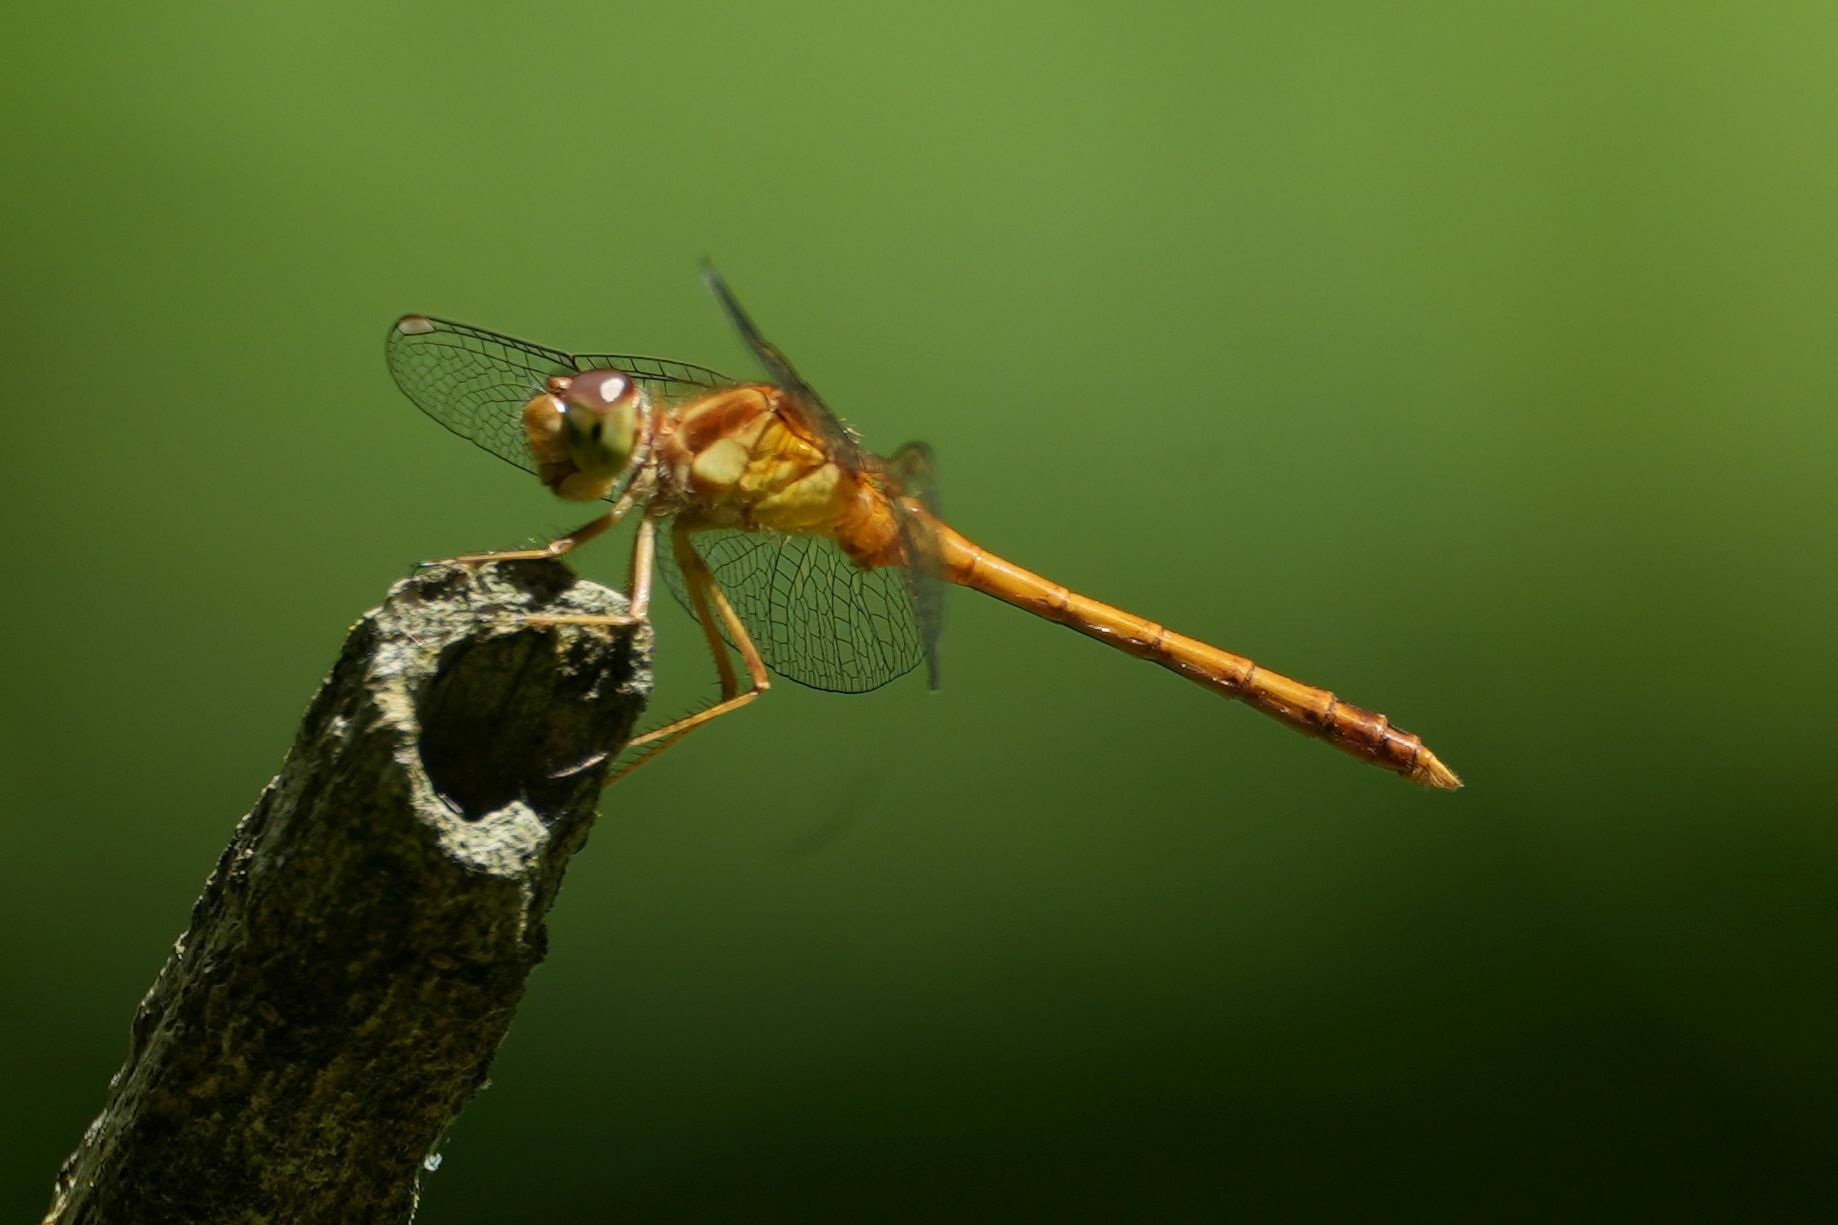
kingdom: Animalia
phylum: Arthropoda
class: Insecta
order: Odonata
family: Libellulidae
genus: Sympetrum
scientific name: Sympetrum vicinum
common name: Autumn meadowhawk
